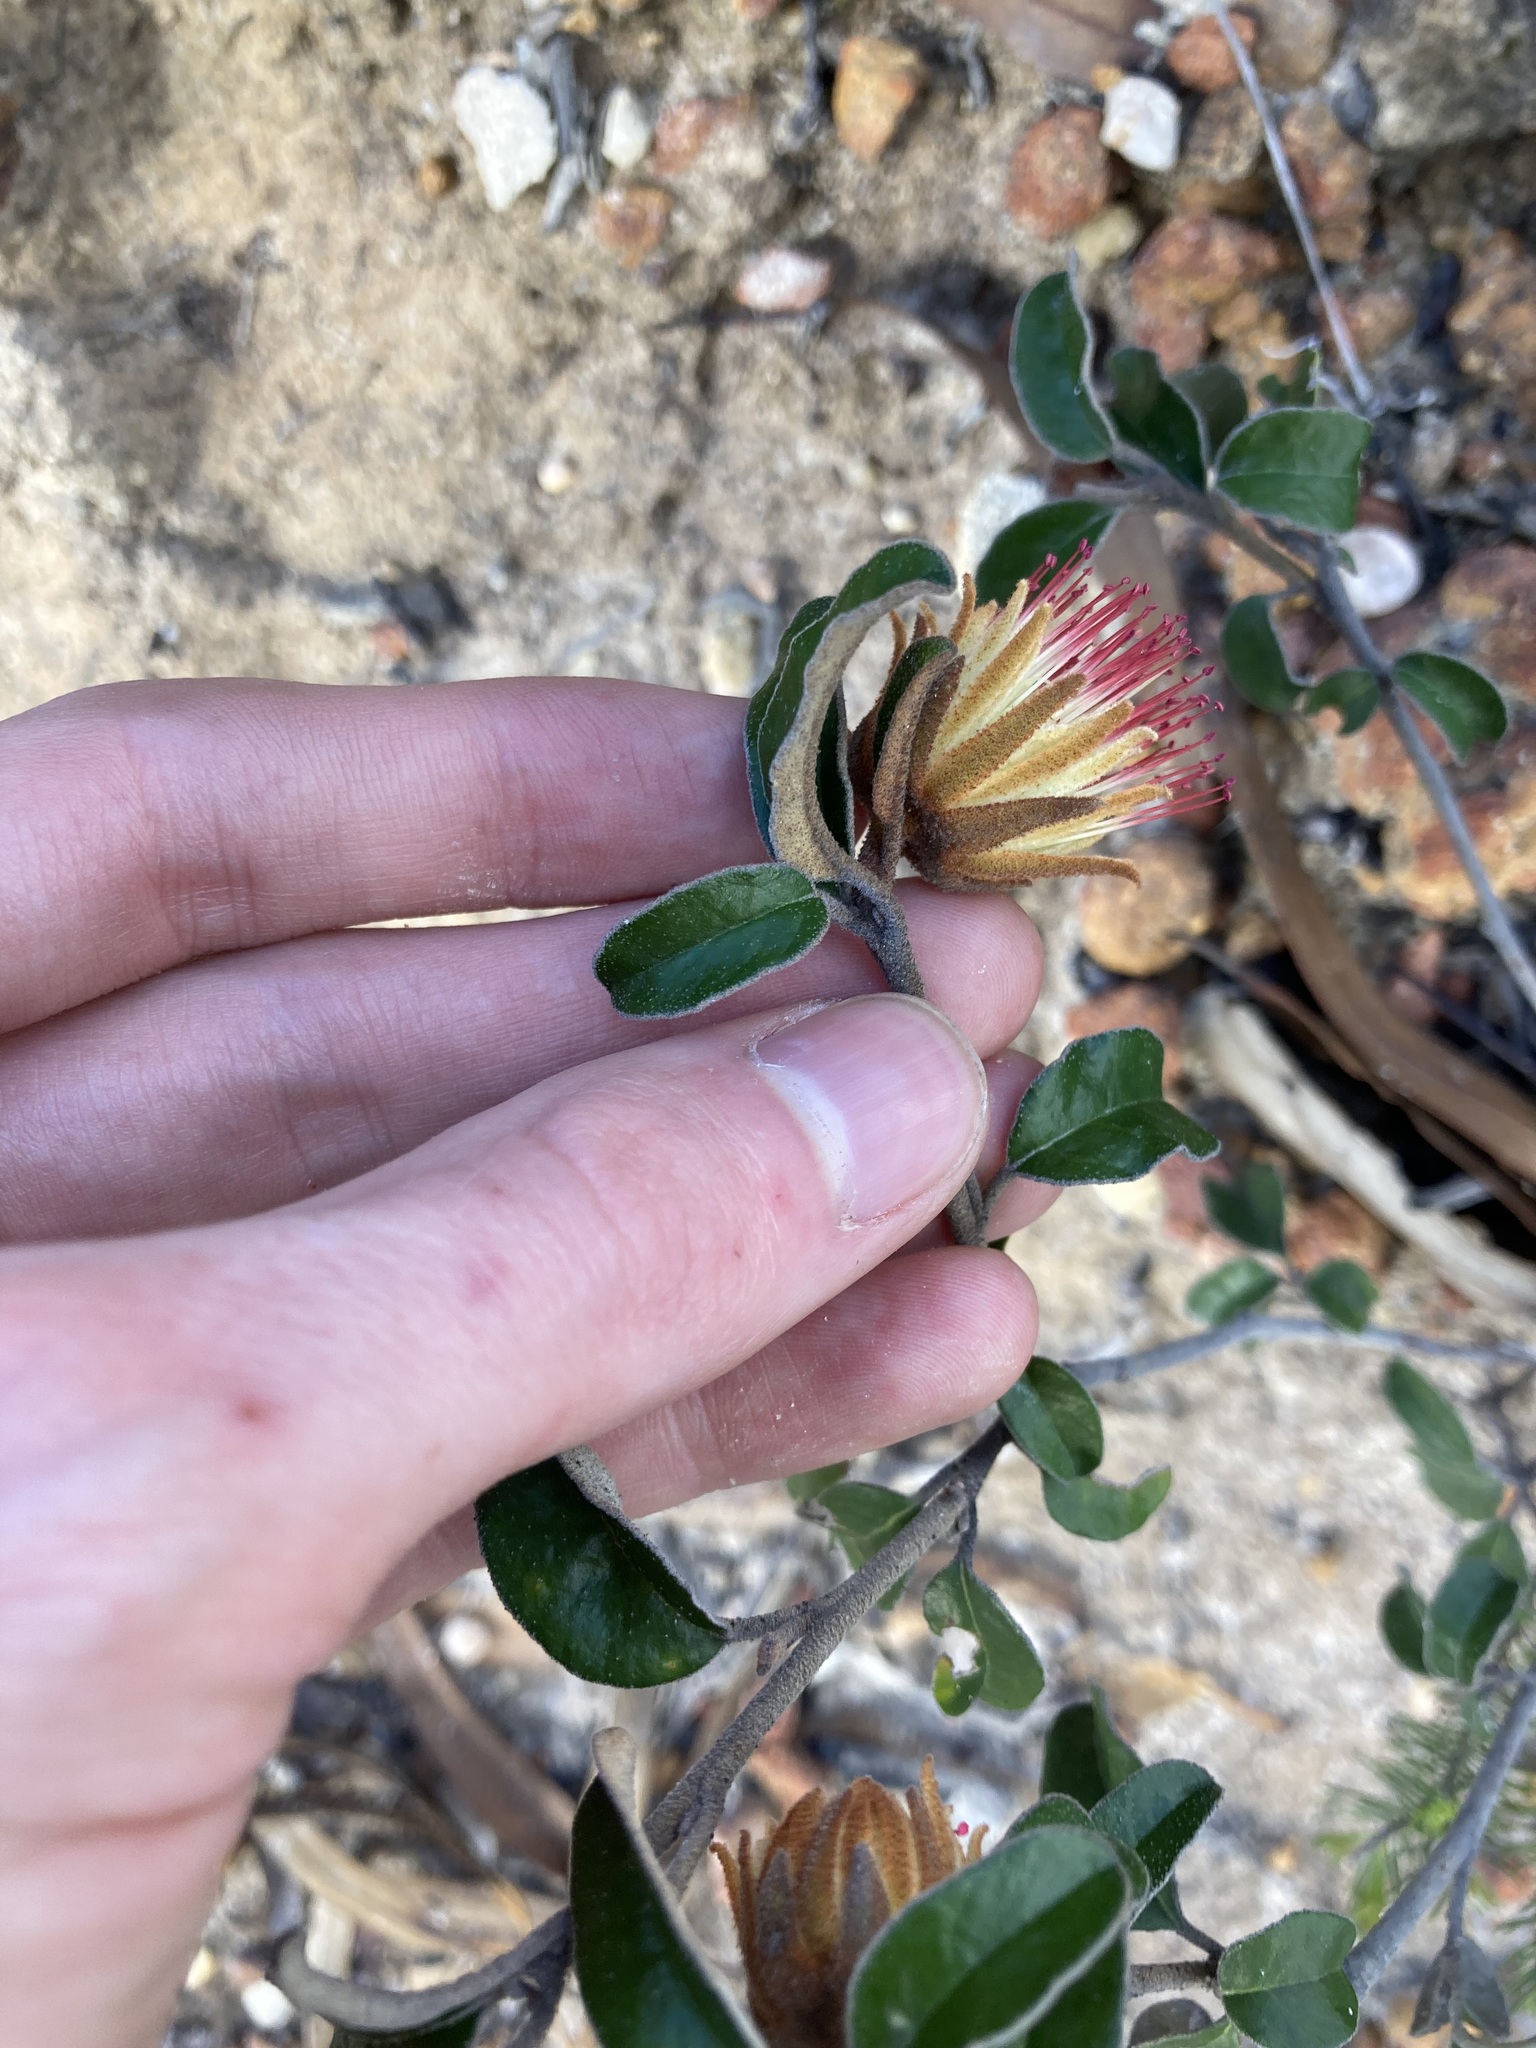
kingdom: Plantae
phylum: Tracheophyta
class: Magnoliopsida
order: Sapindales
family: Rutaceae
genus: Diplolaena
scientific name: Diplolaena eneabbensis
